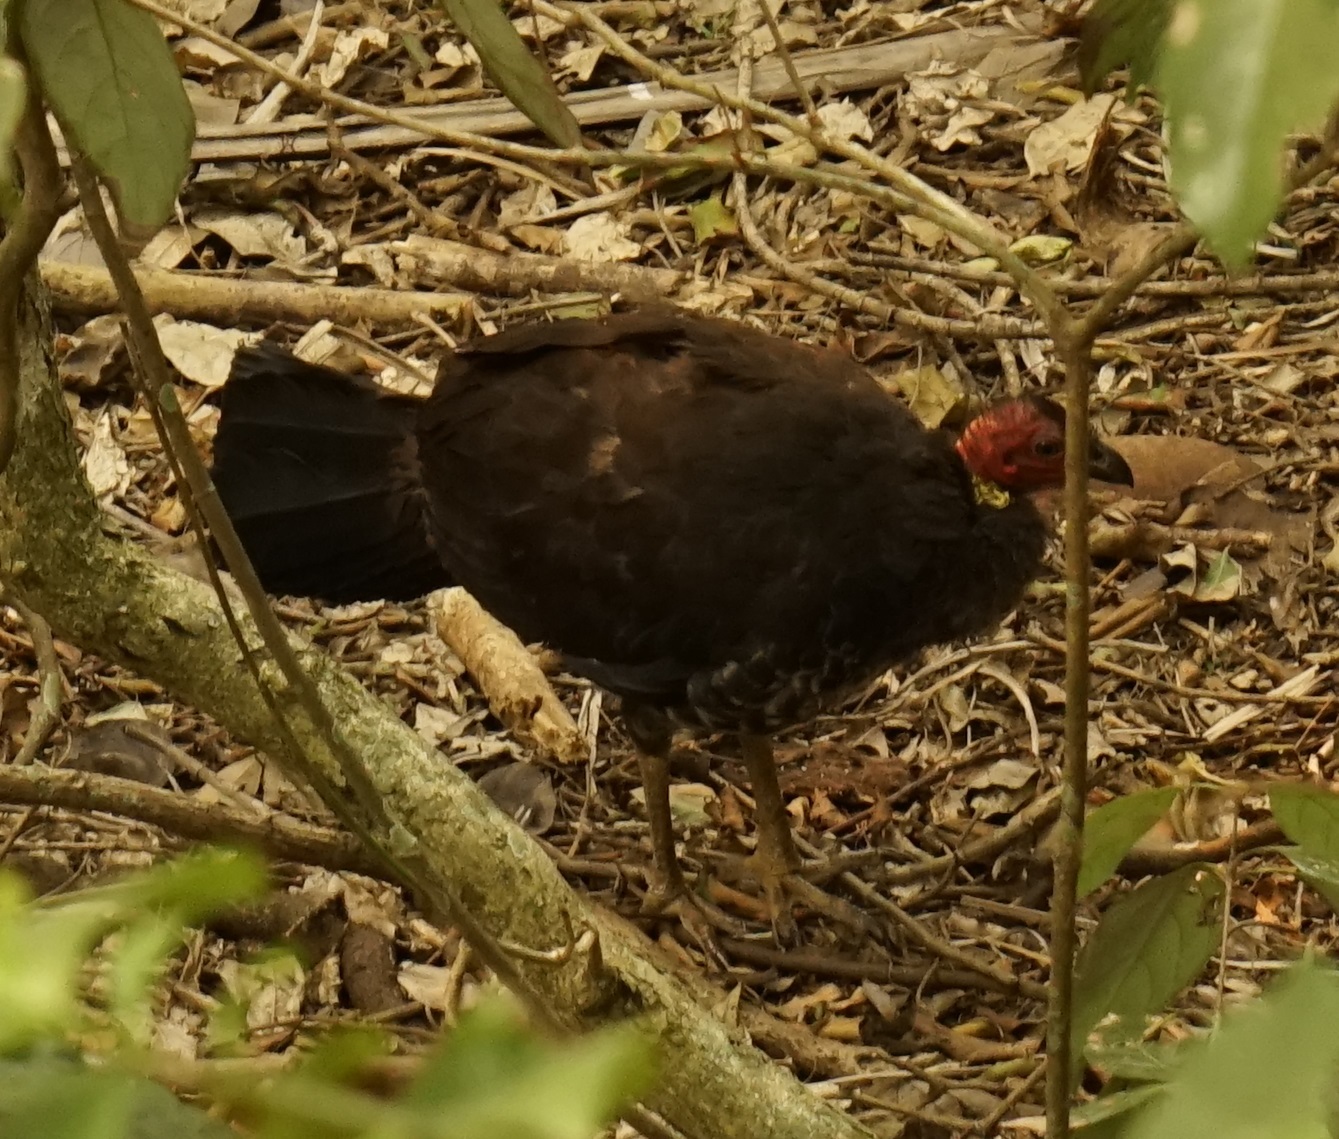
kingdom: Animalia
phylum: Chordata
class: Aves
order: Galliformes
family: Megapodiidae
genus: Alectura
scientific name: Alectura lathami
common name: Australian brushturkey
